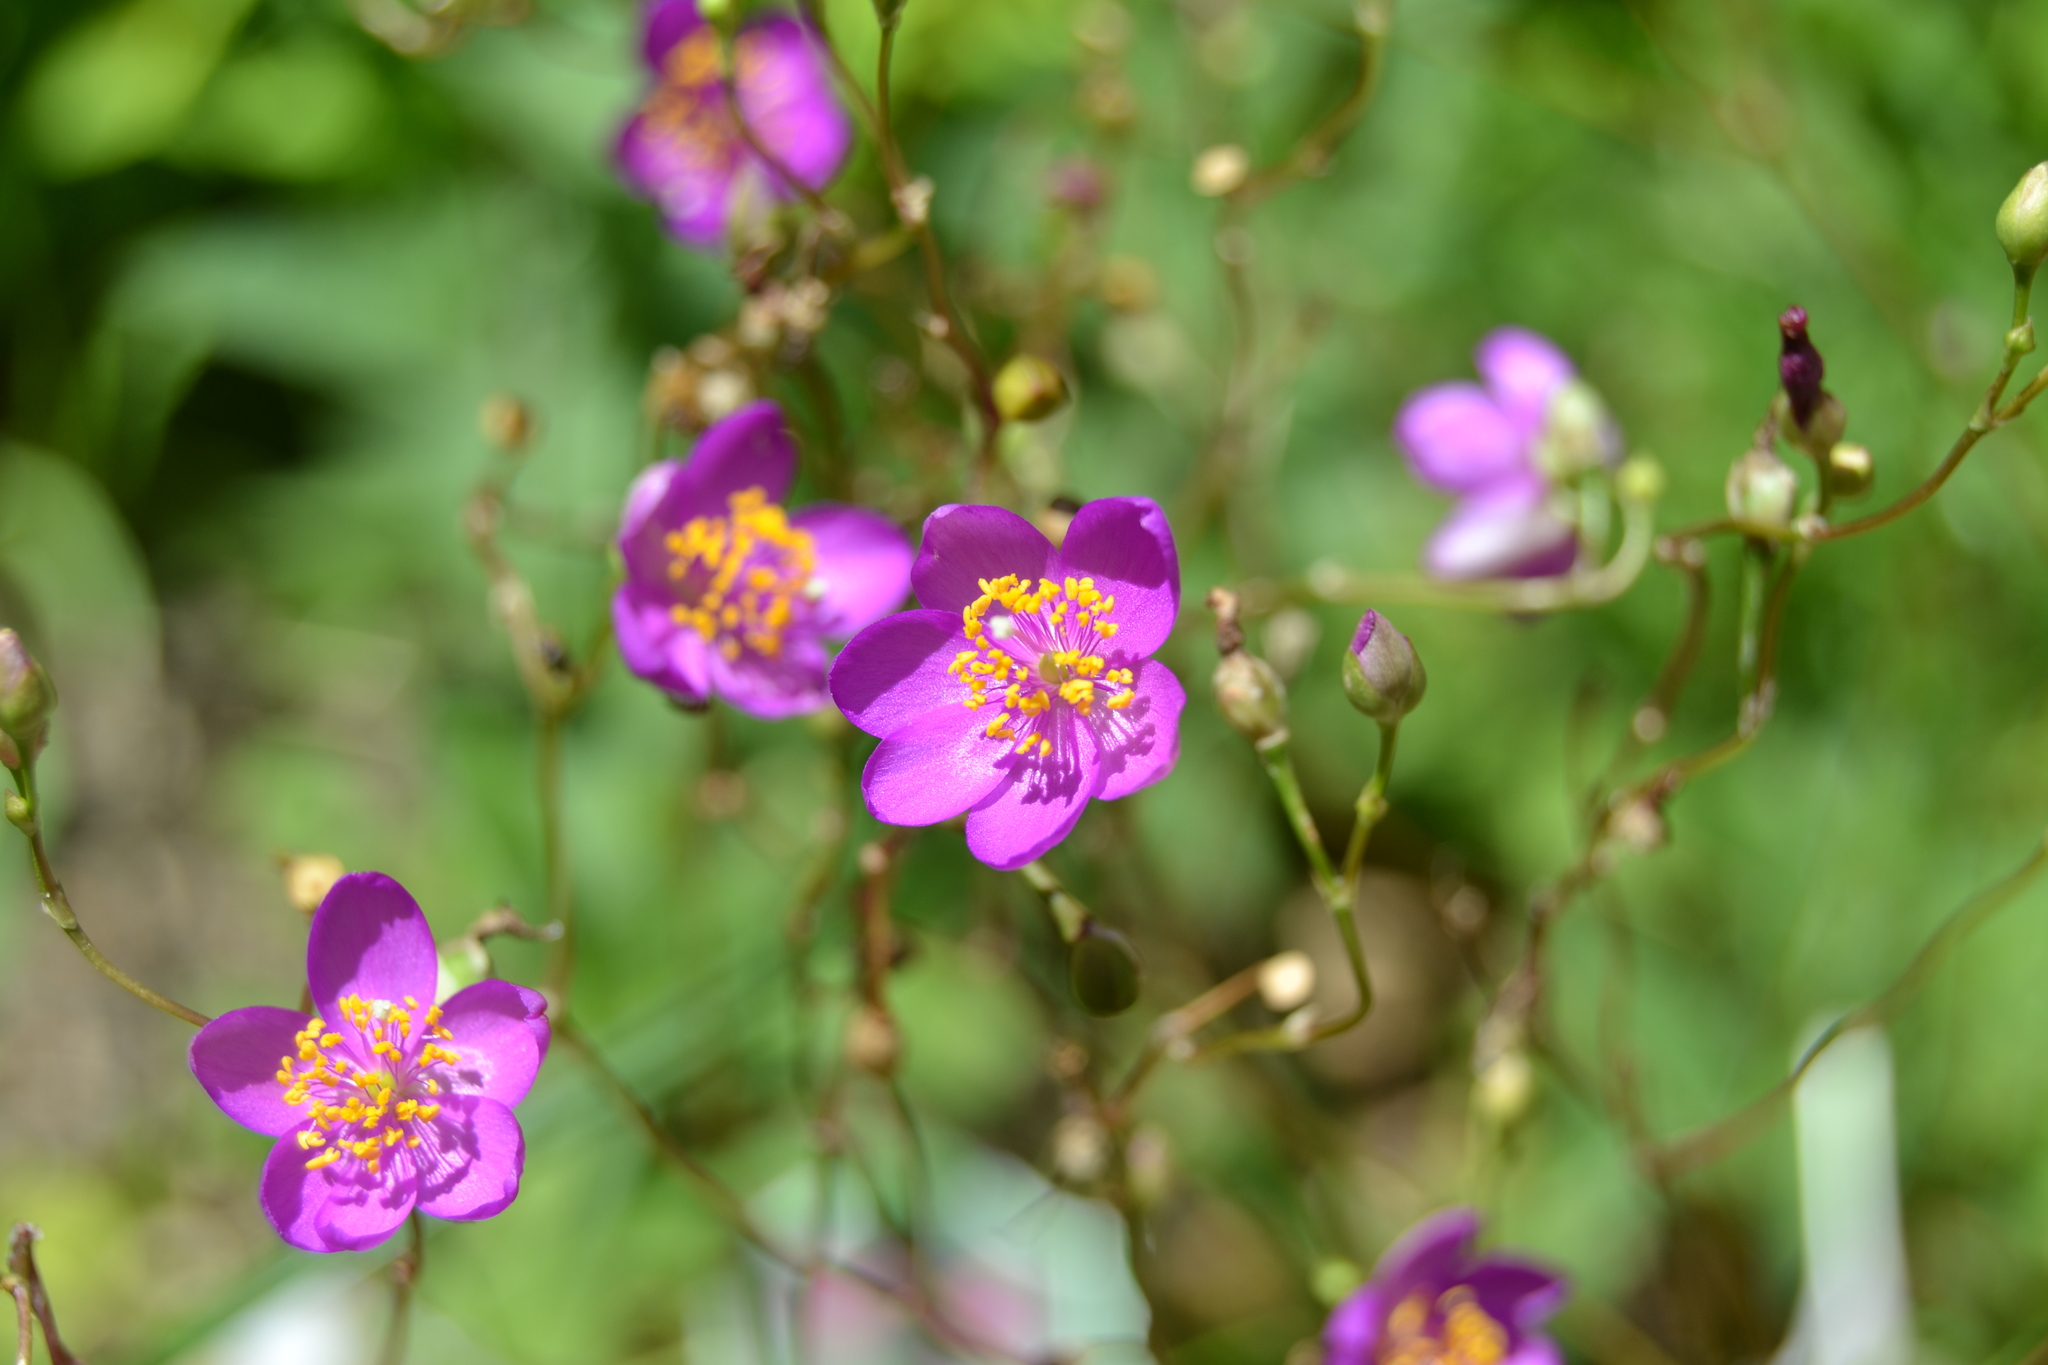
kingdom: Plantae
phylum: Tracheophyta
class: Magnoliopsida
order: Caryophyllales
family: Montiaceae
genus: Phemeranthus
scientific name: Phemeranthus calycinus
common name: Largeflower fameflower
